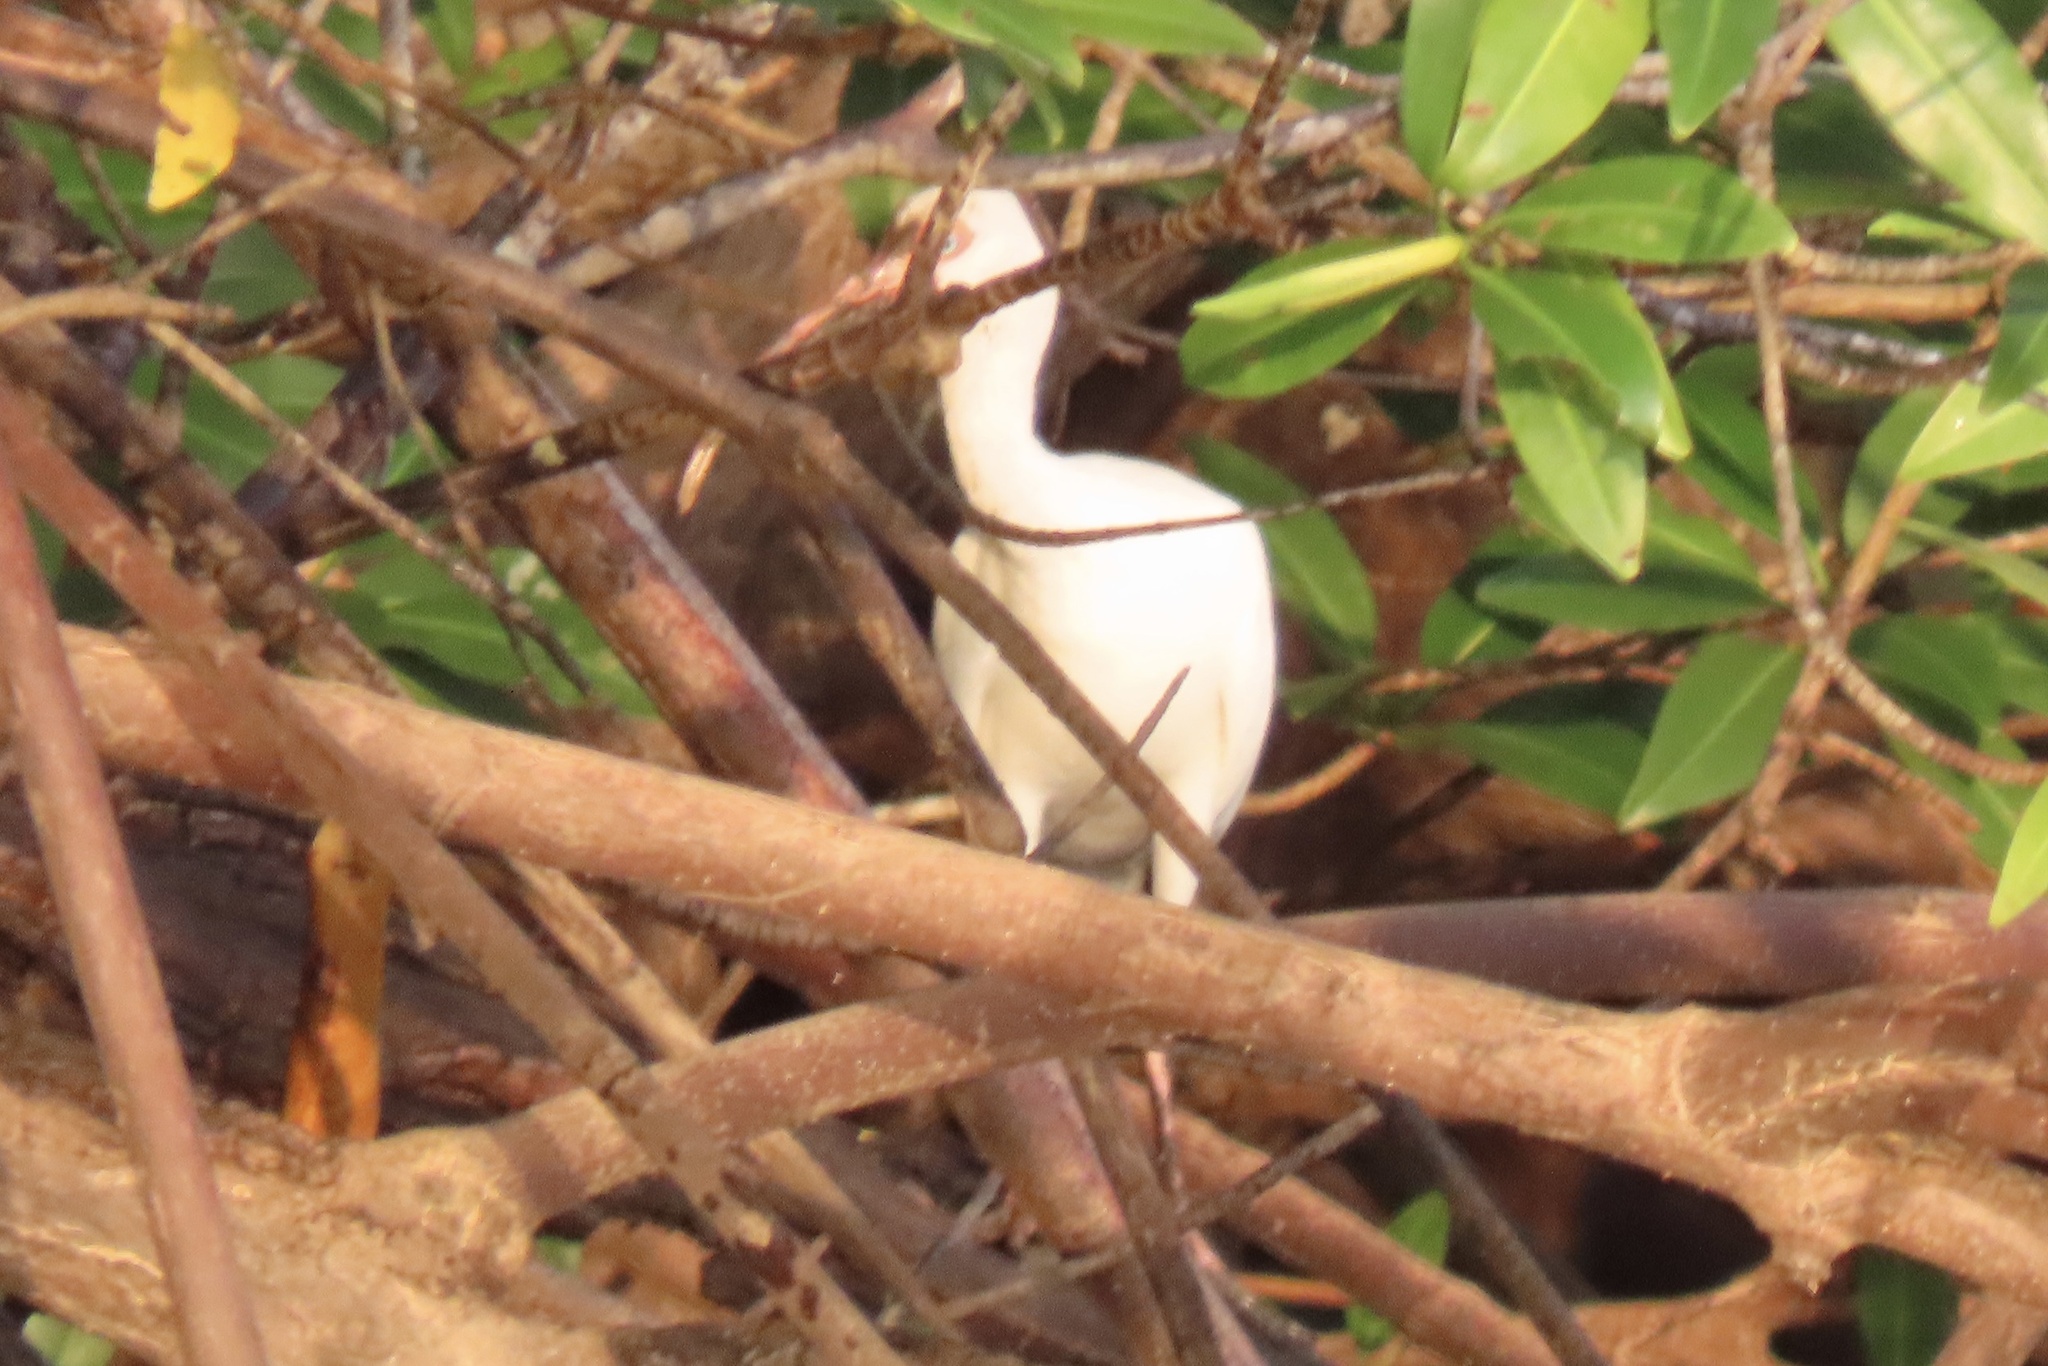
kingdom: Animalia
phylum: Chordata
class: Aves
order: Pelecaniformes
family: Threskiornithidae
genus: Eudocimus
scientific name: Eudocimus albus
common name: White ibis
